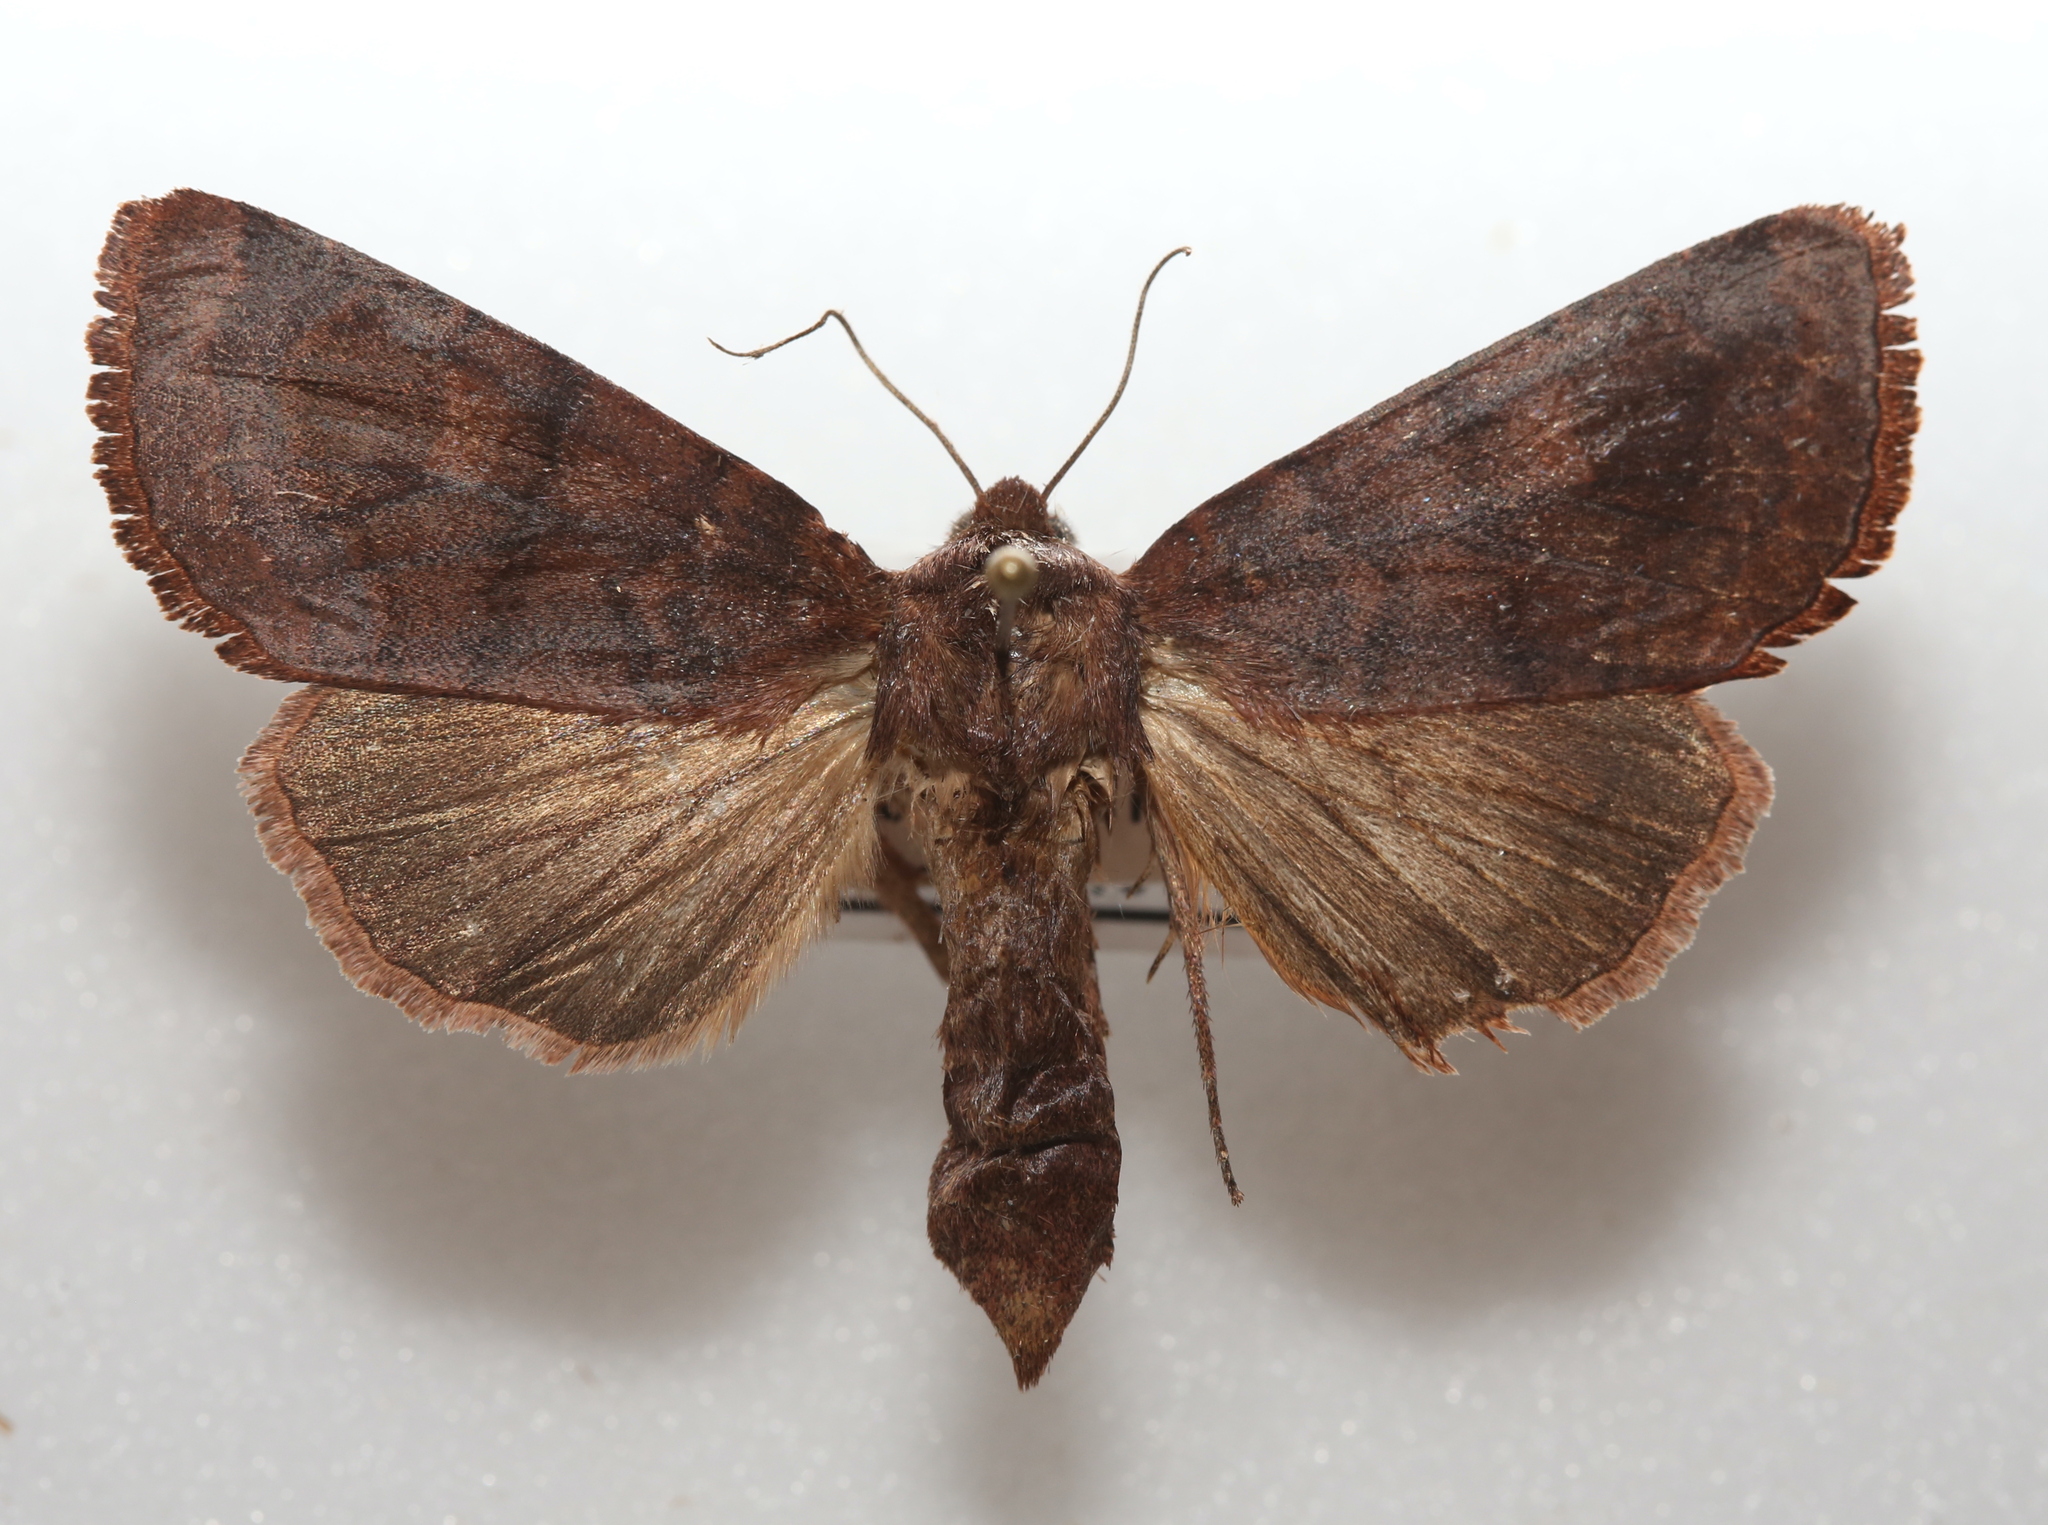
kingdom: Animalia
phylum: Arthropoda
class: Insecta
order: Lepidoptera
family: Noctuidae
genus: Nephelodes
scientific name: Nephelodes minians
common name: Bronzed cutworm
